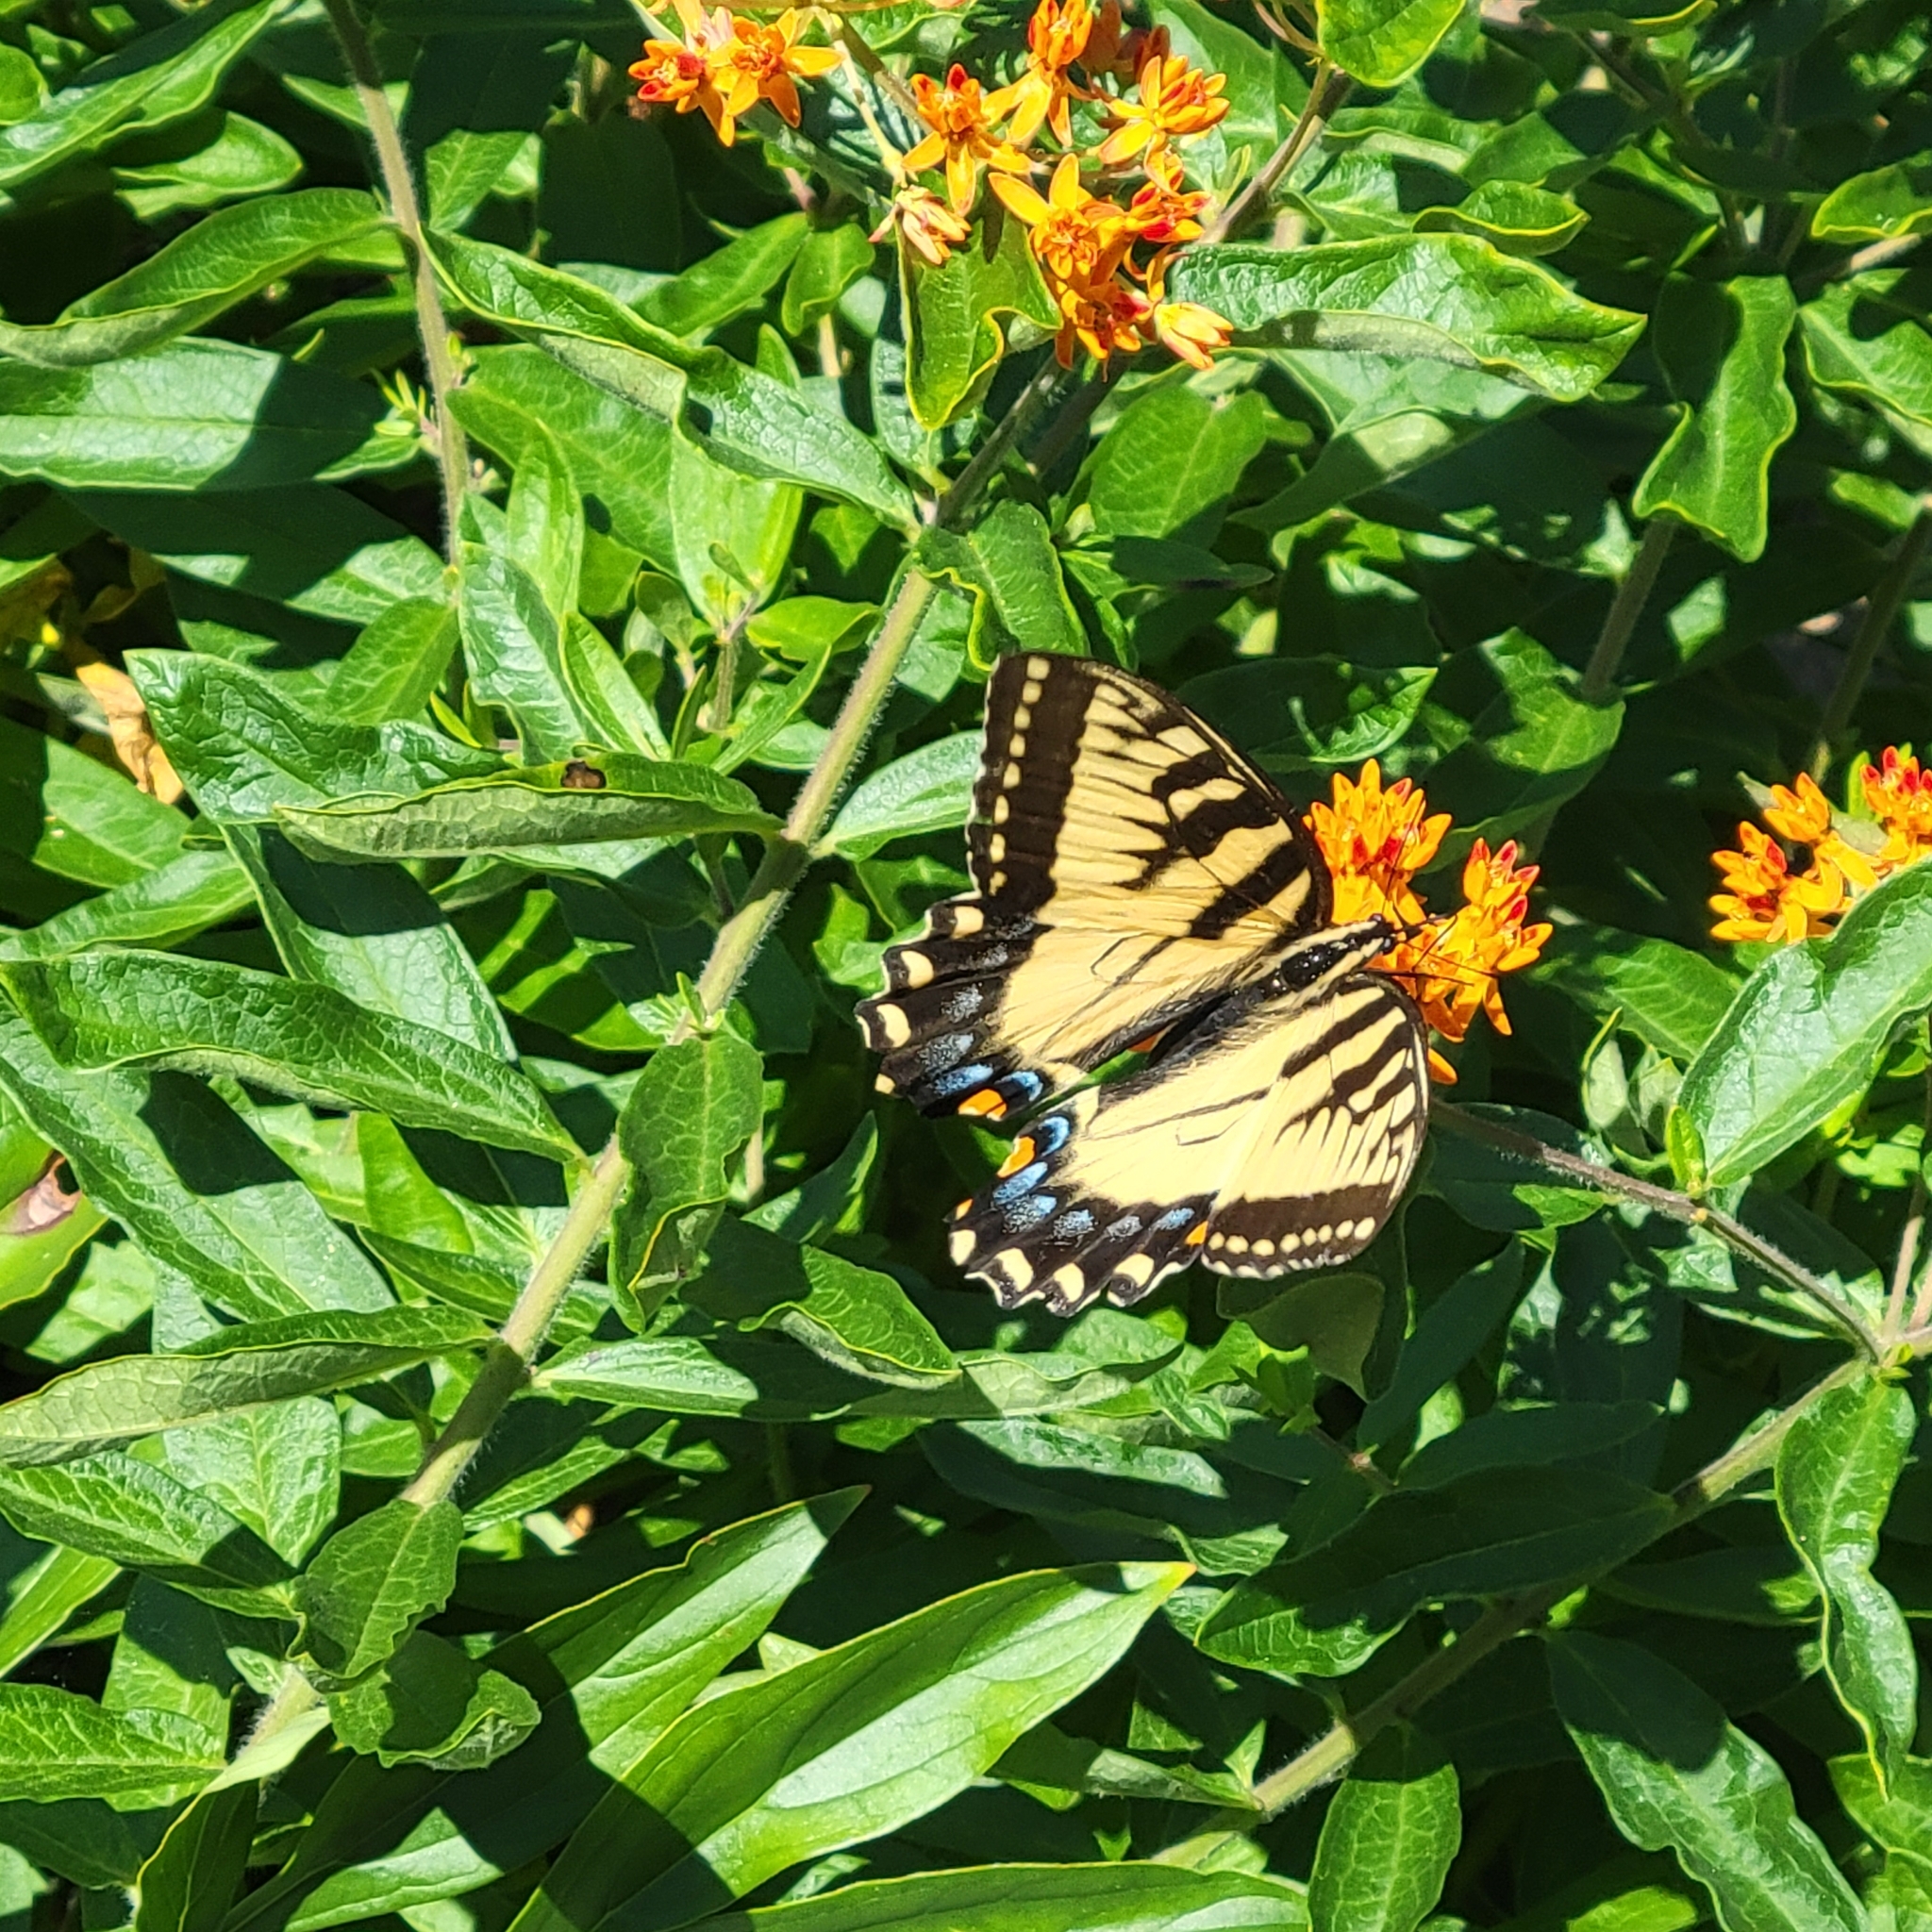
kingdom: Animalia
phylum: Arthropoda
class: Insecta
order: Lepidoptera
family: Papilionidae
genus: Papilio
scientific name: Papilio glaucus
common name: Tiger swallowtail
